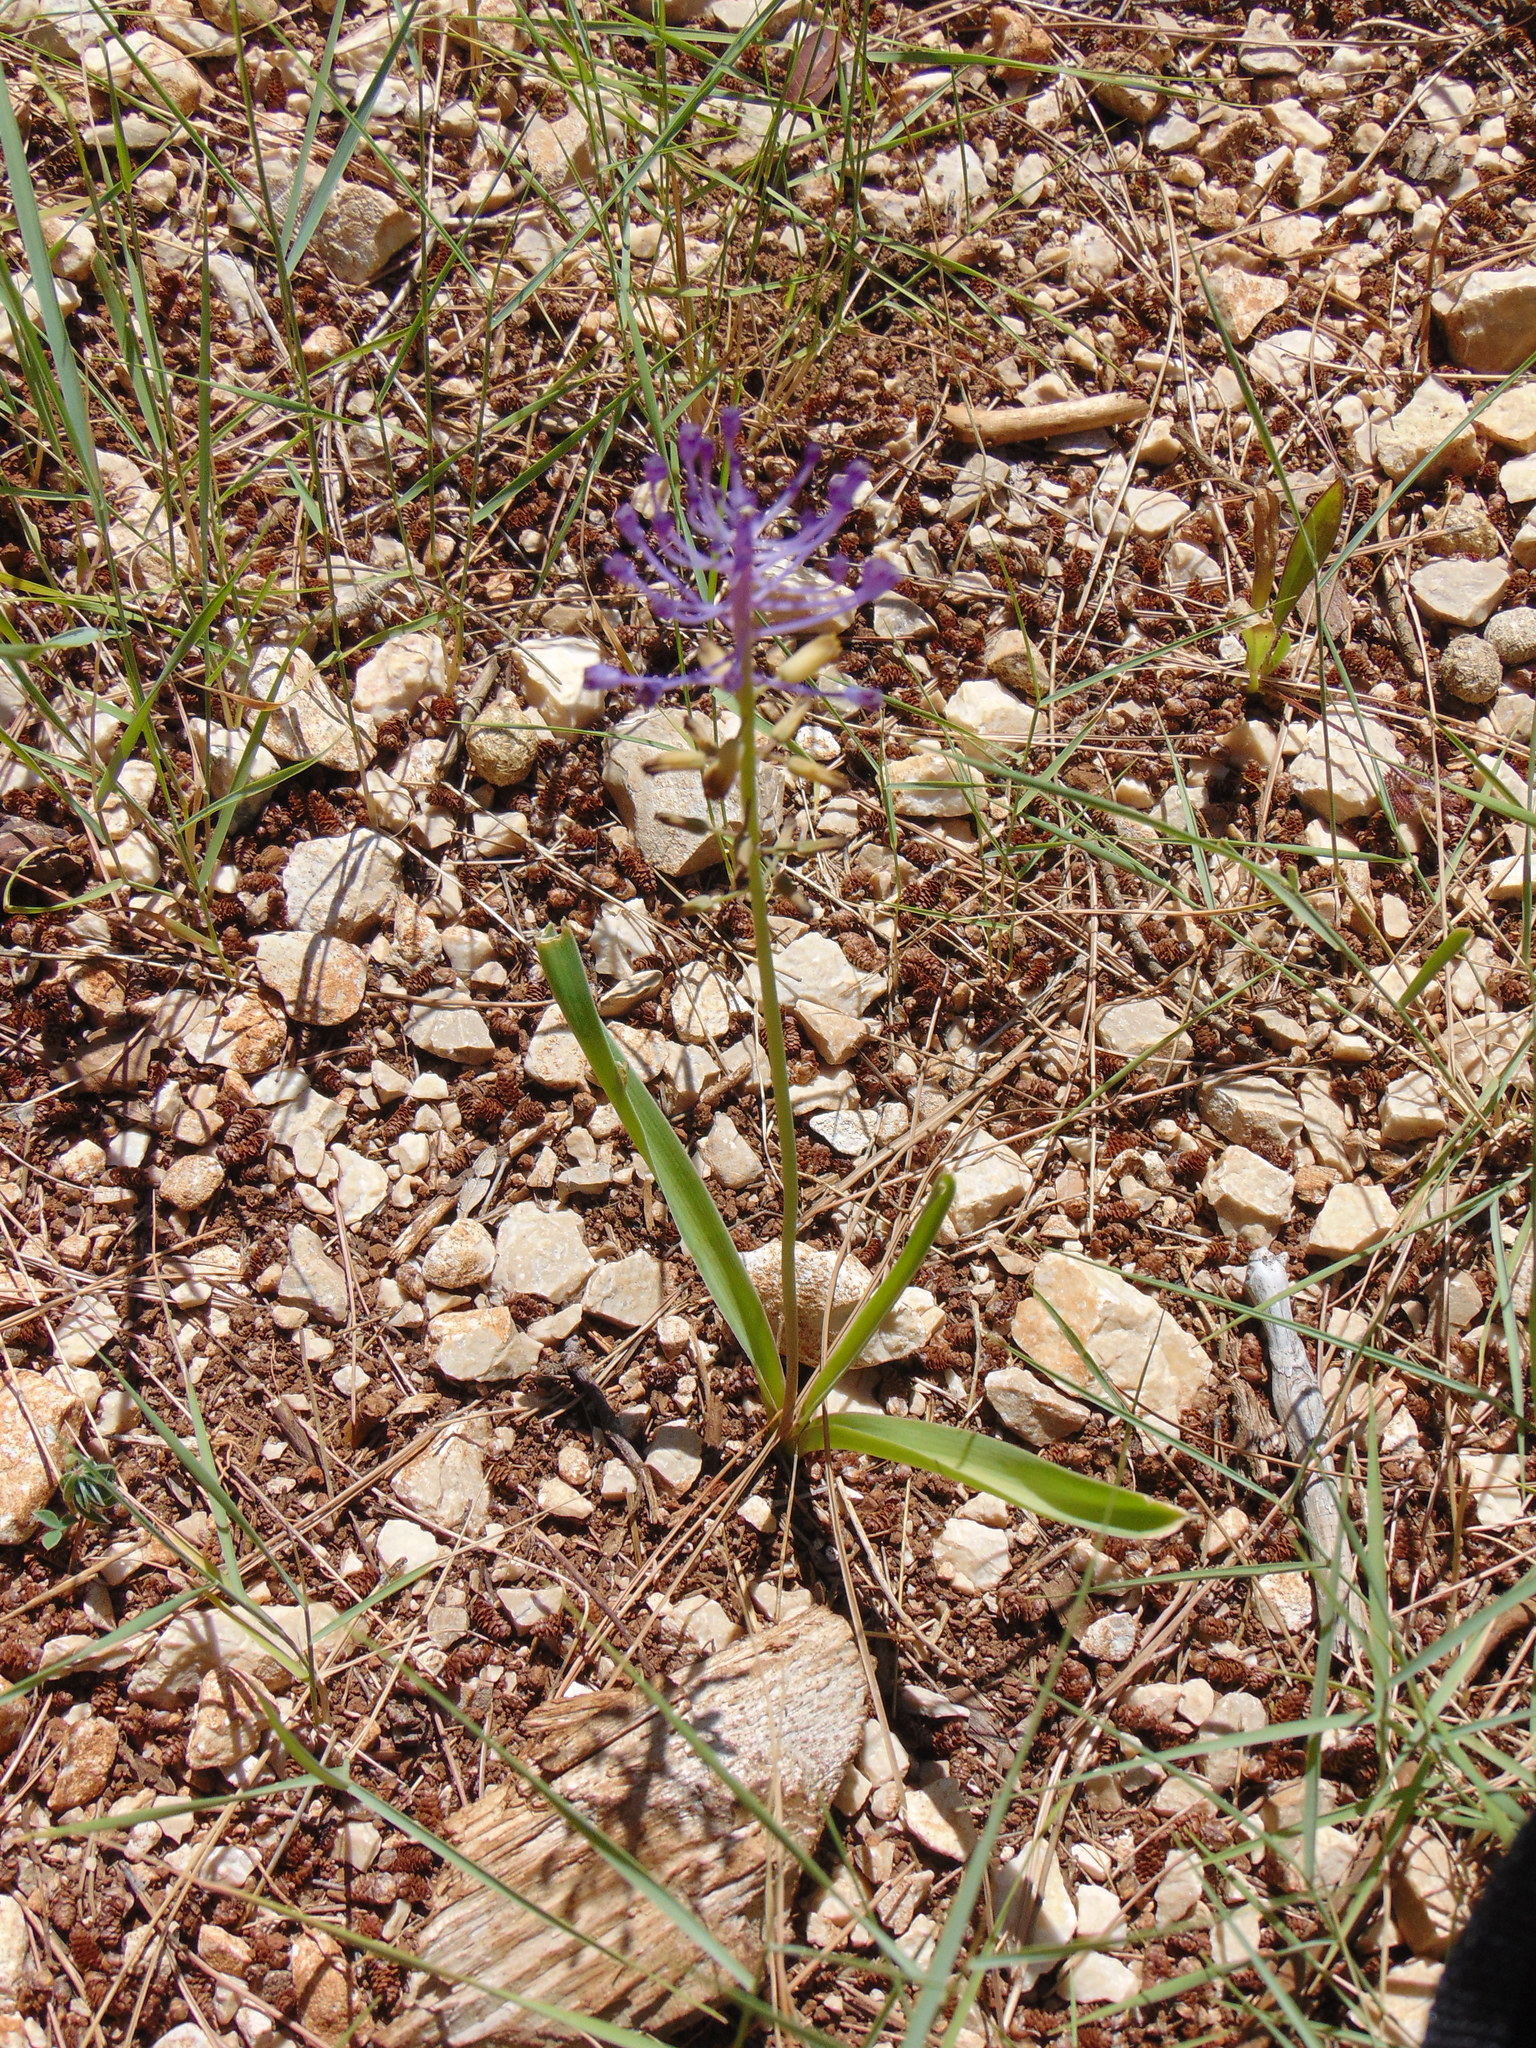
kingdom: Plantae
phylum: Tracheophyta
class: Liliopsida
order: Asparagales
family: Asparagaceae
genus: Muscari
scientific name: Muscari comosum
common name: Tassel hyacinth
